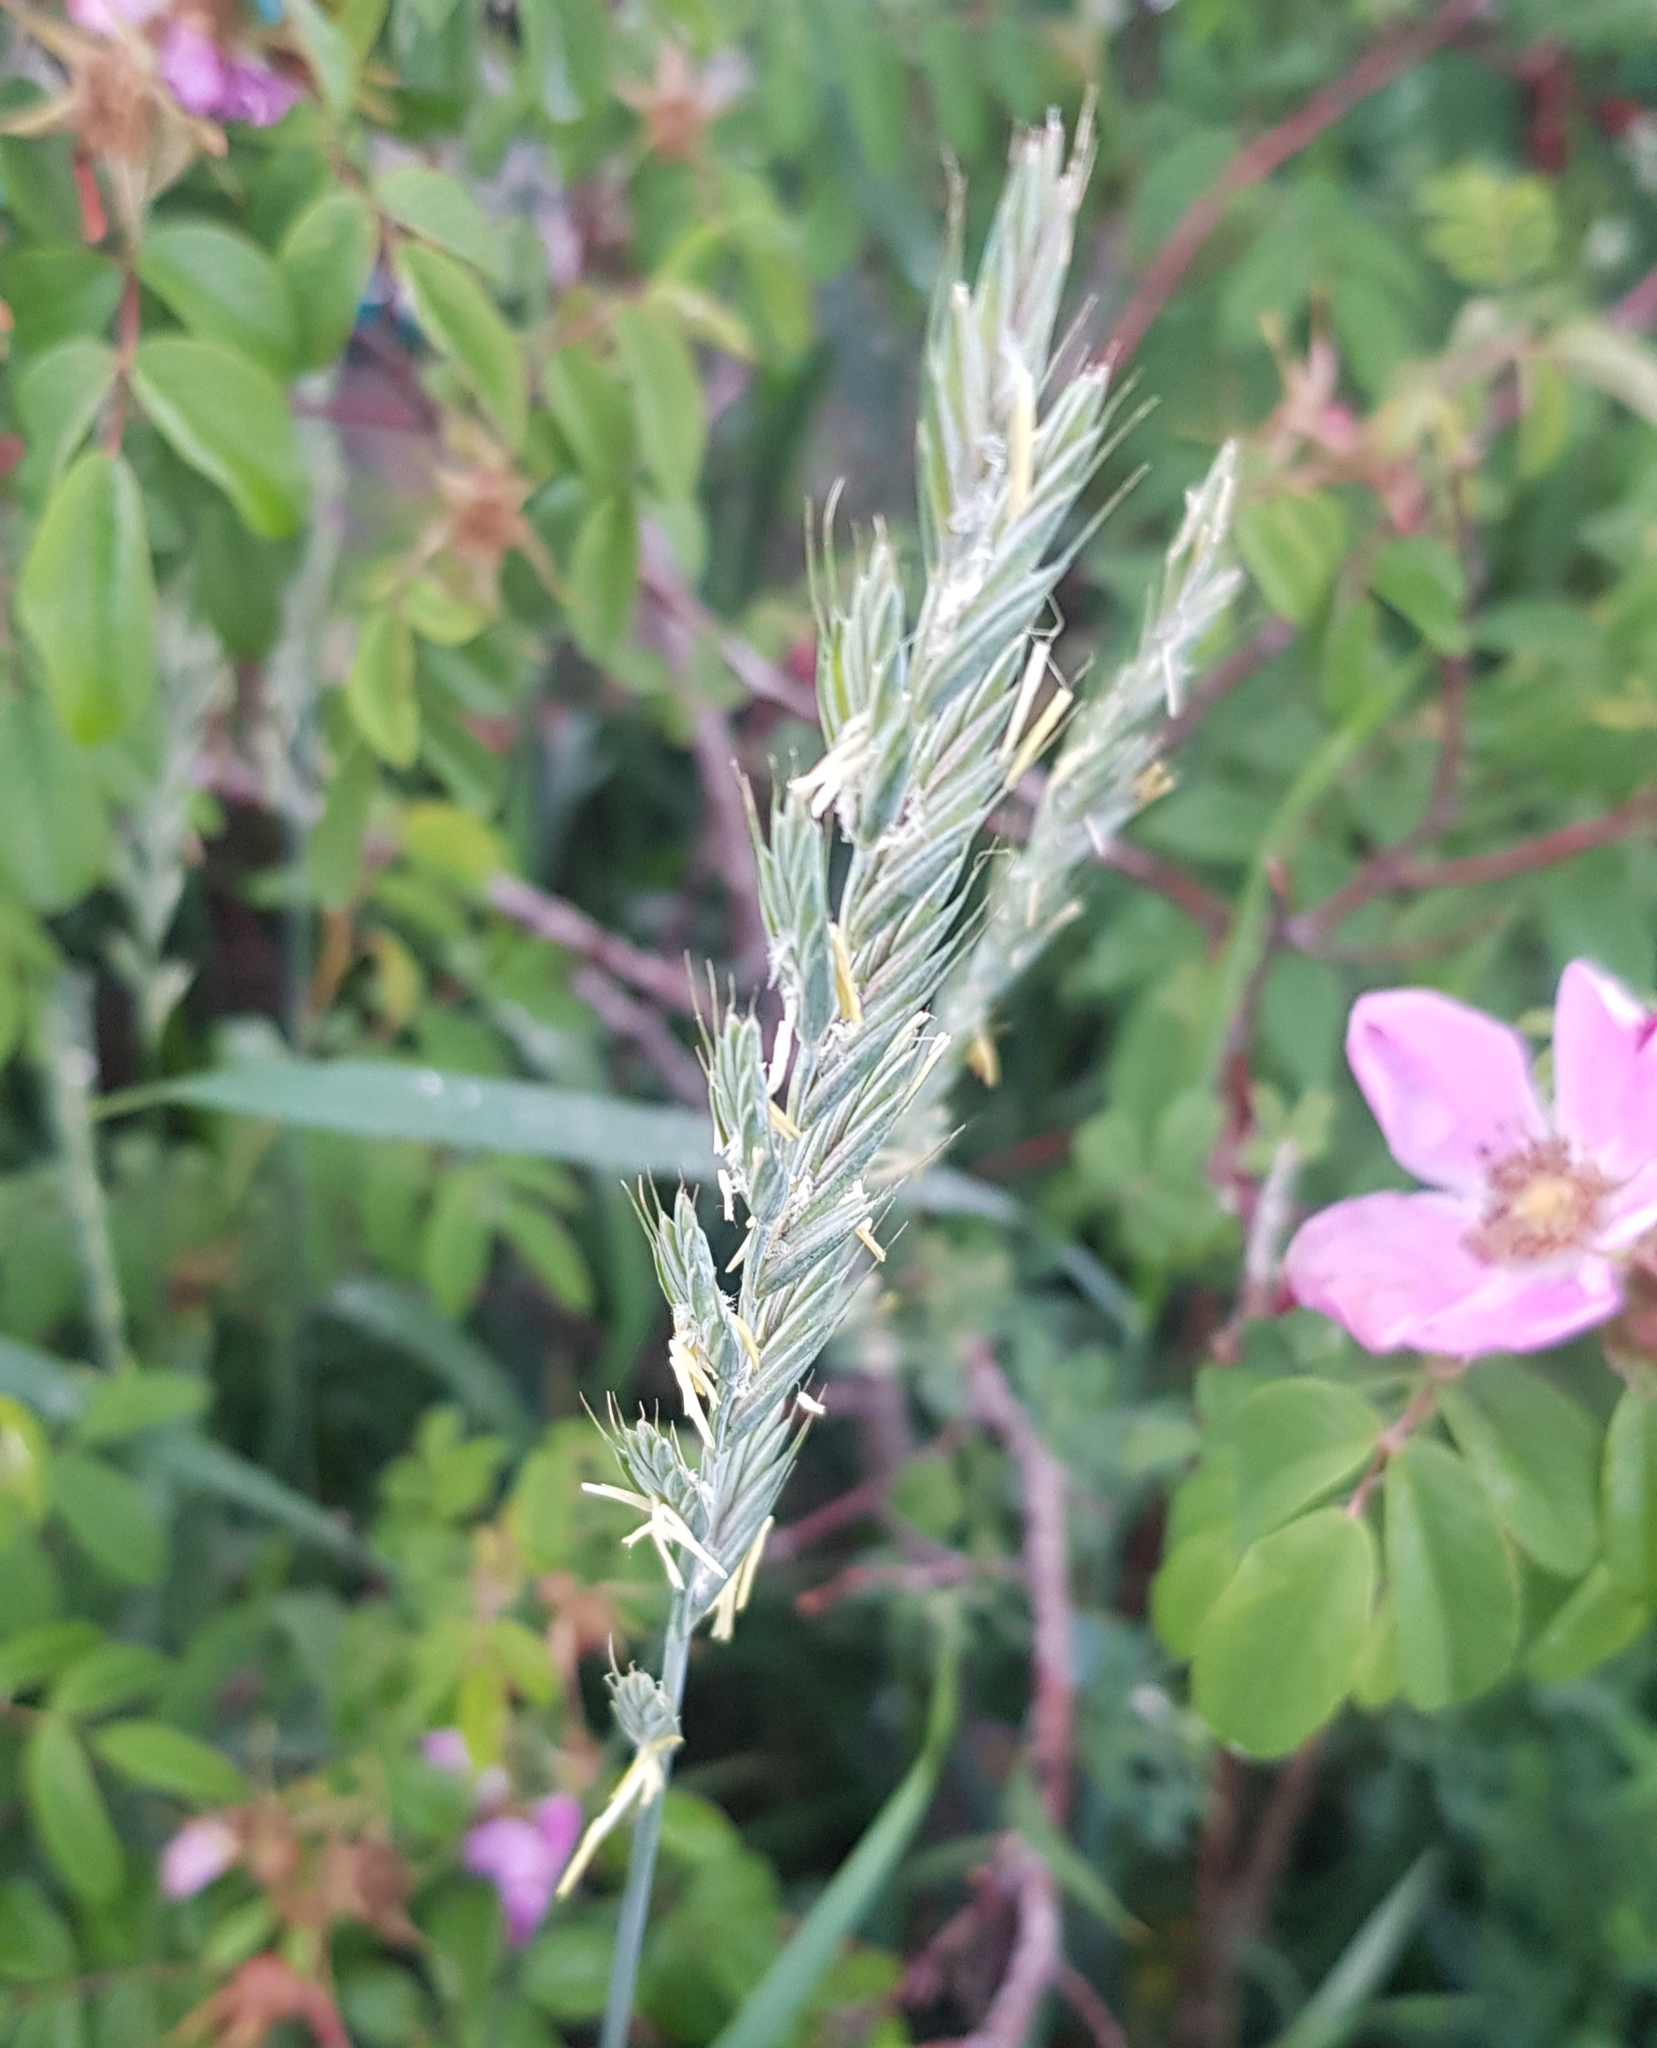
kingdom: Plantae
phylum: Tracheophyta
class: Liliopsida
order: Poales
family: Poaceae
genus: Elymus
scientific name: Elymus repens
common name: Quackgrass
